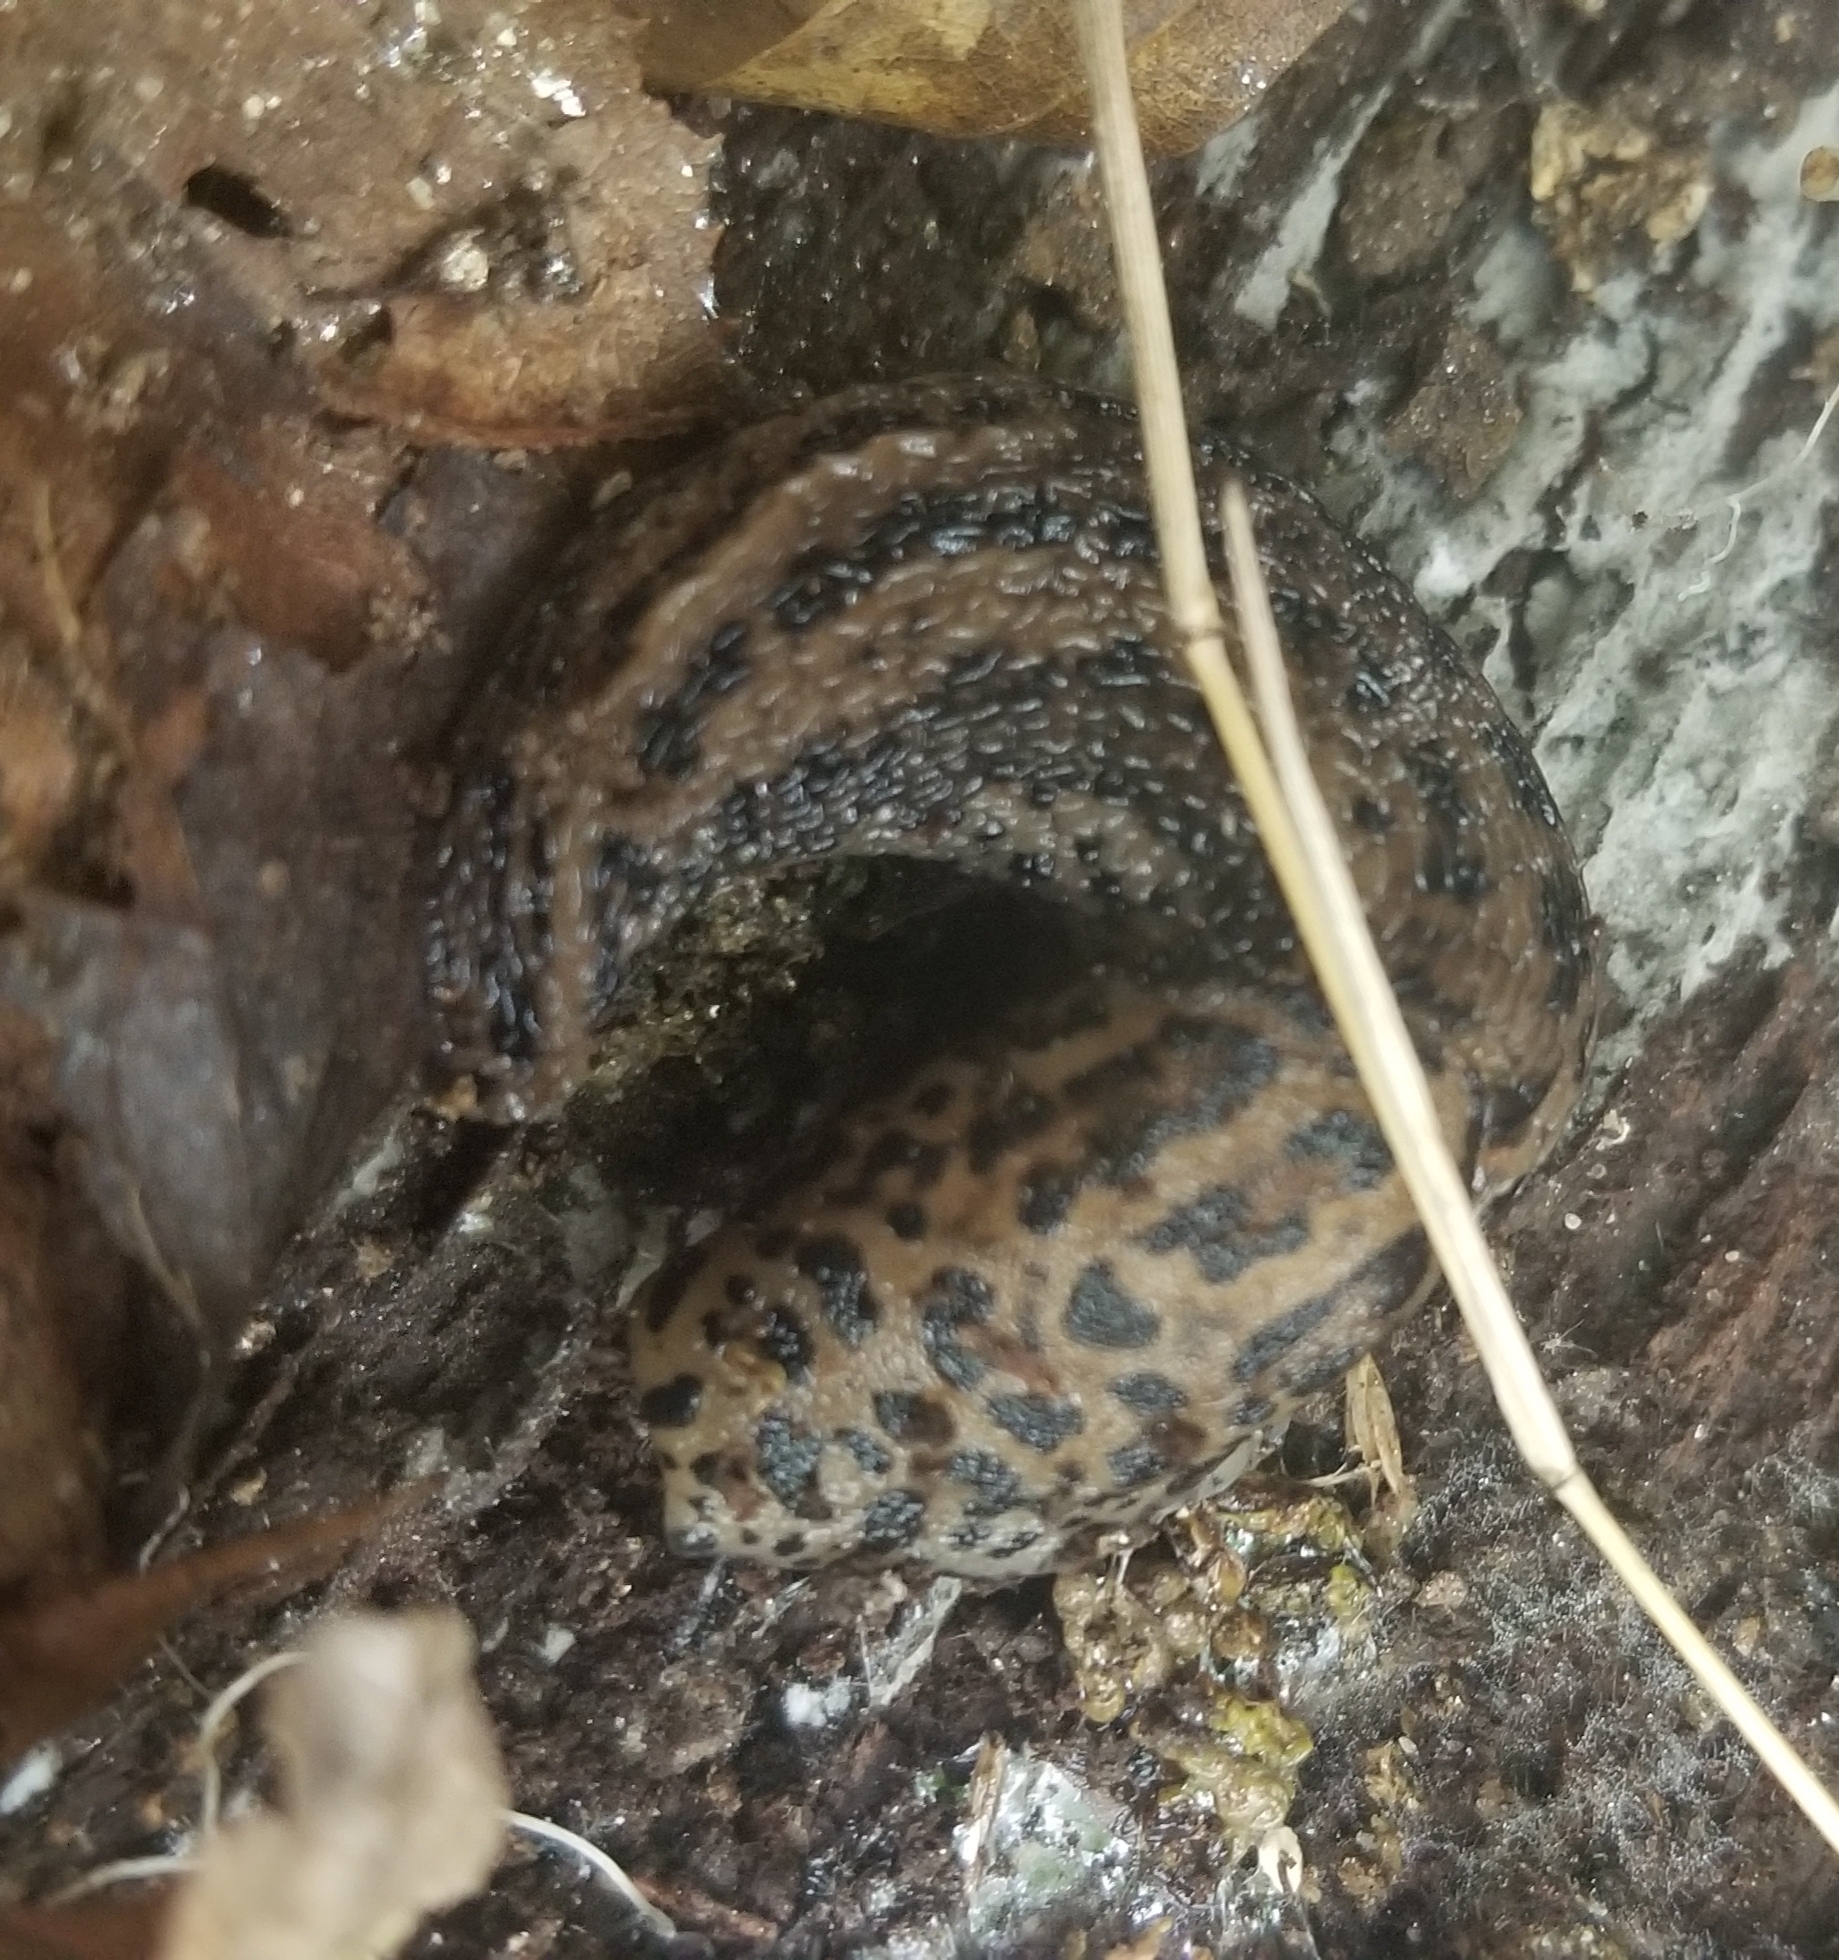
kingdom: Animalia
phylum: Mollusca
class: Gastropoda
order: Stylommatophora
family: Limacidae
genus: Limax
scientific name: Limax maximus
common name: Great grey slug
